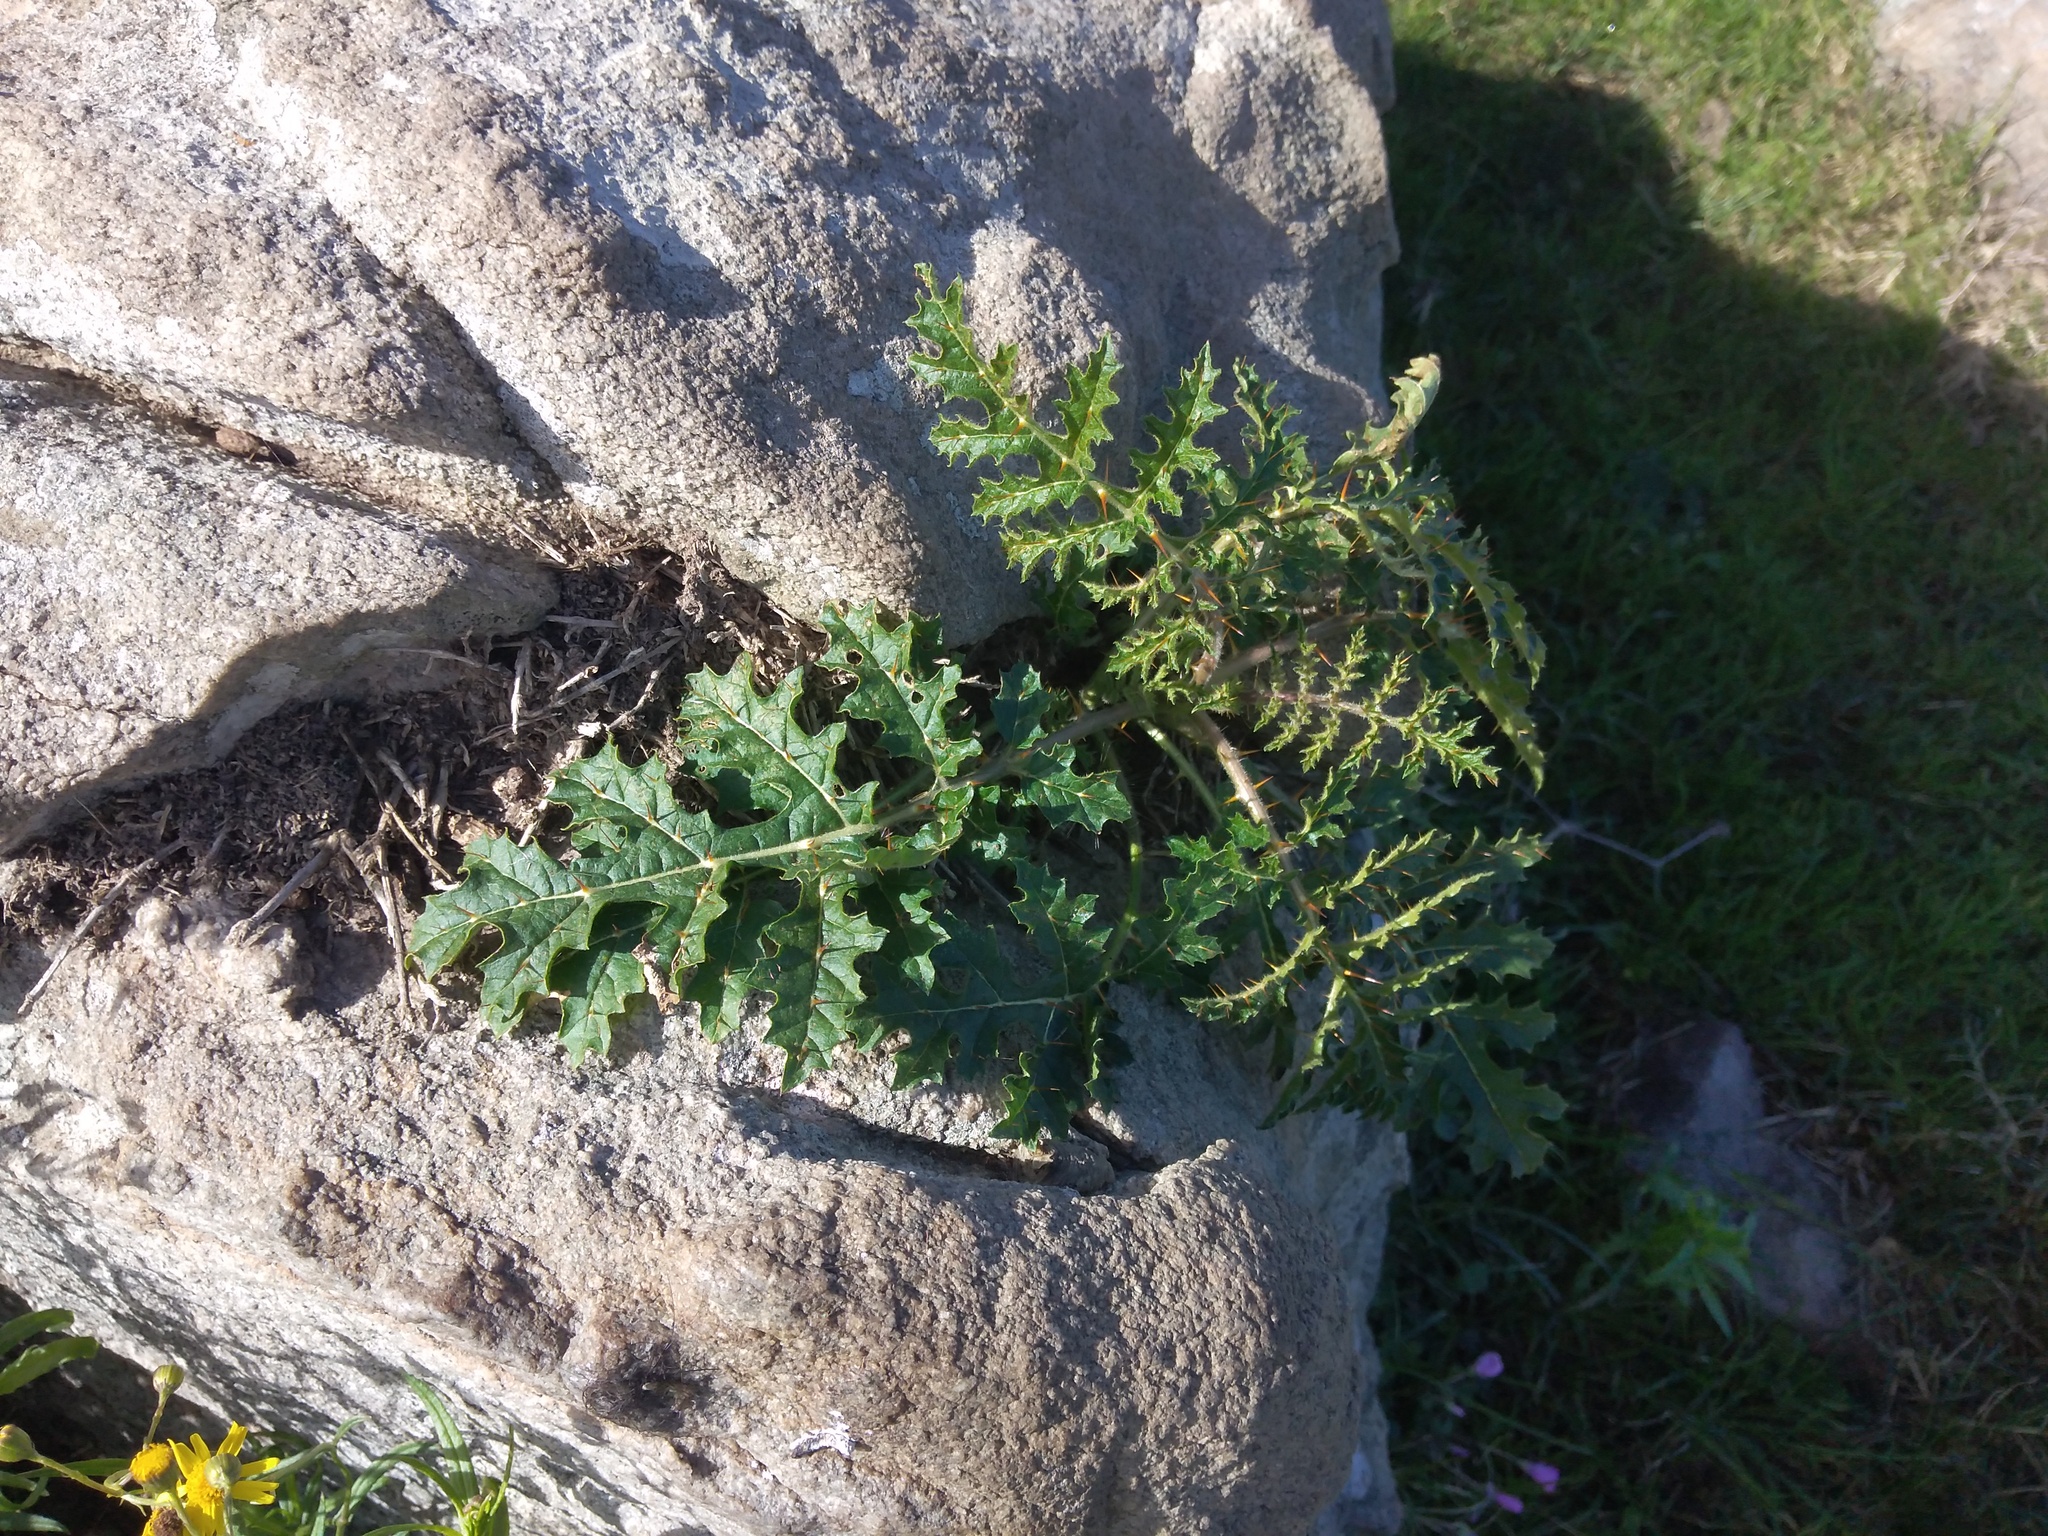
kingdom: Plantae
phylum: Tracheophyta
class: Magnoliopsida
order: Solanales
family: Solanaceae
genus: Solanum
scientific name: Solanum sisymbriifolium
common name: Red buffalo-bur
